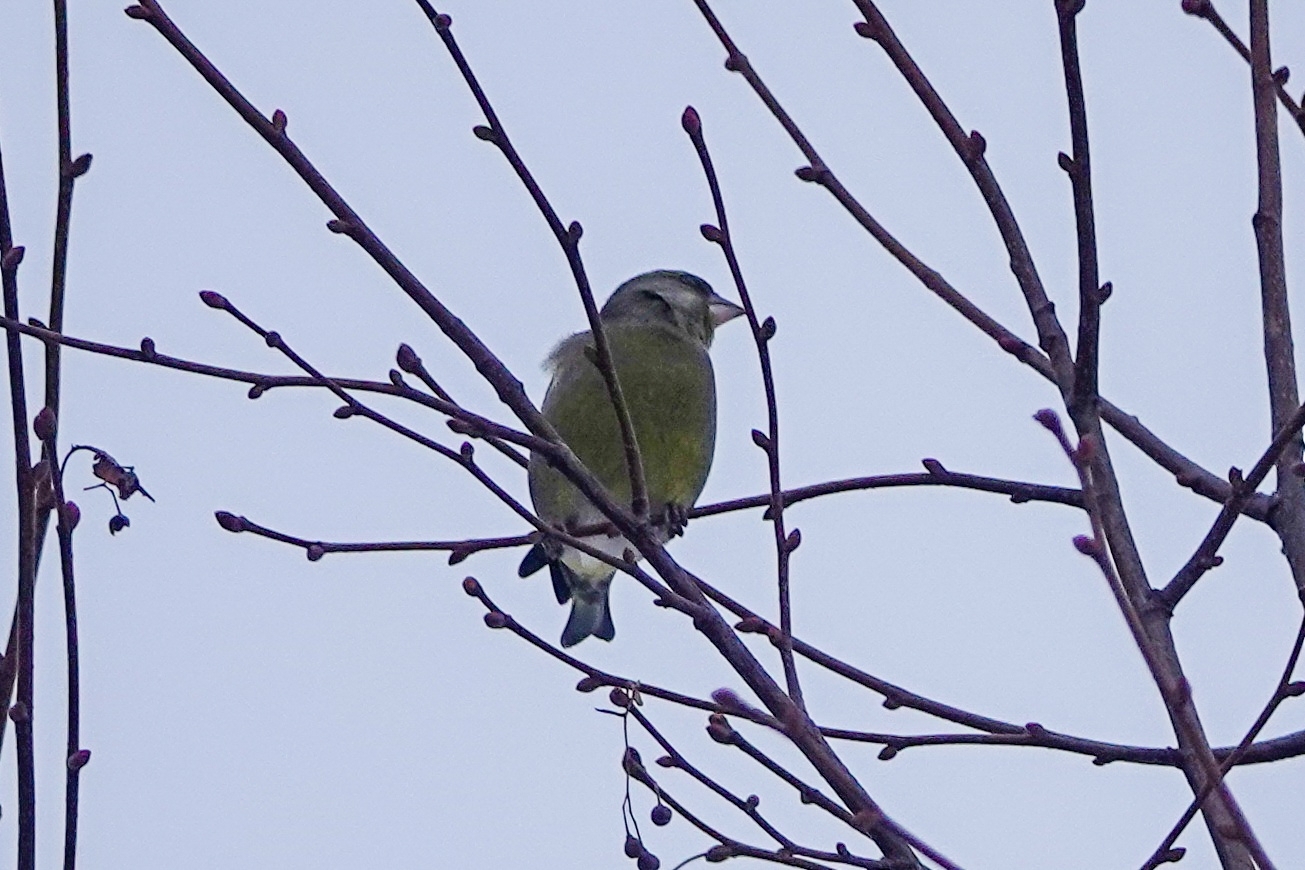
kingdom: Plantae
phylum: Tracheophyta
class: Liliopsida
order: Poales
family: Poaceae
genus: Chloris
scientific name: Chloris chloris
